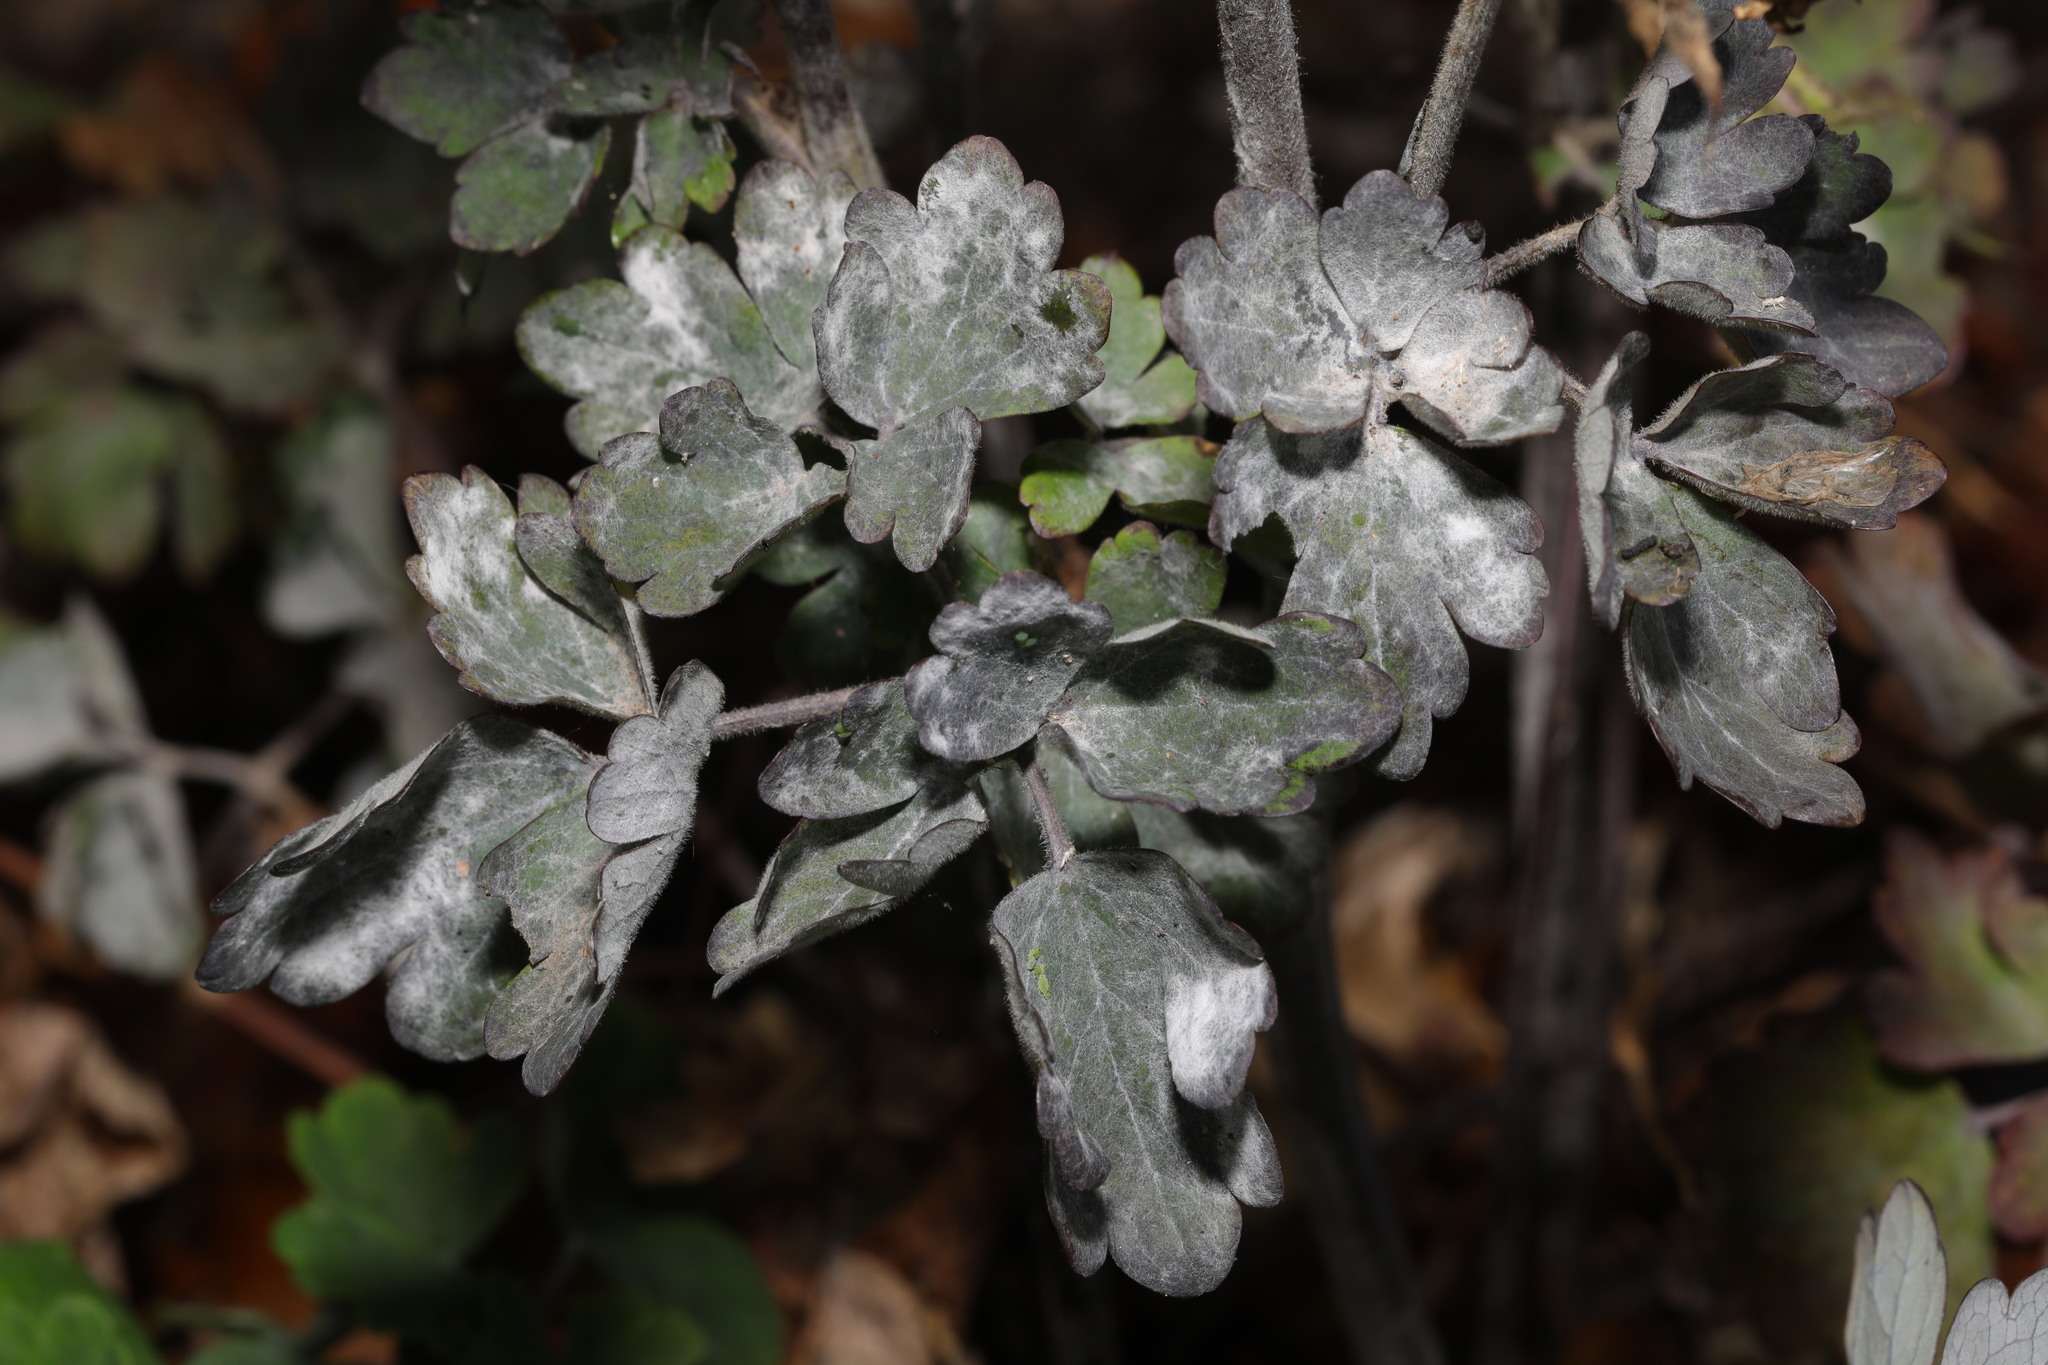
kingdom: Fungi
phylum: Ascomycota
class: Leotiomycetes
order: Helotiales
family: Erysiphaceae
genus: Erysiphe
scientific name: Erysiphe aquilegiae
